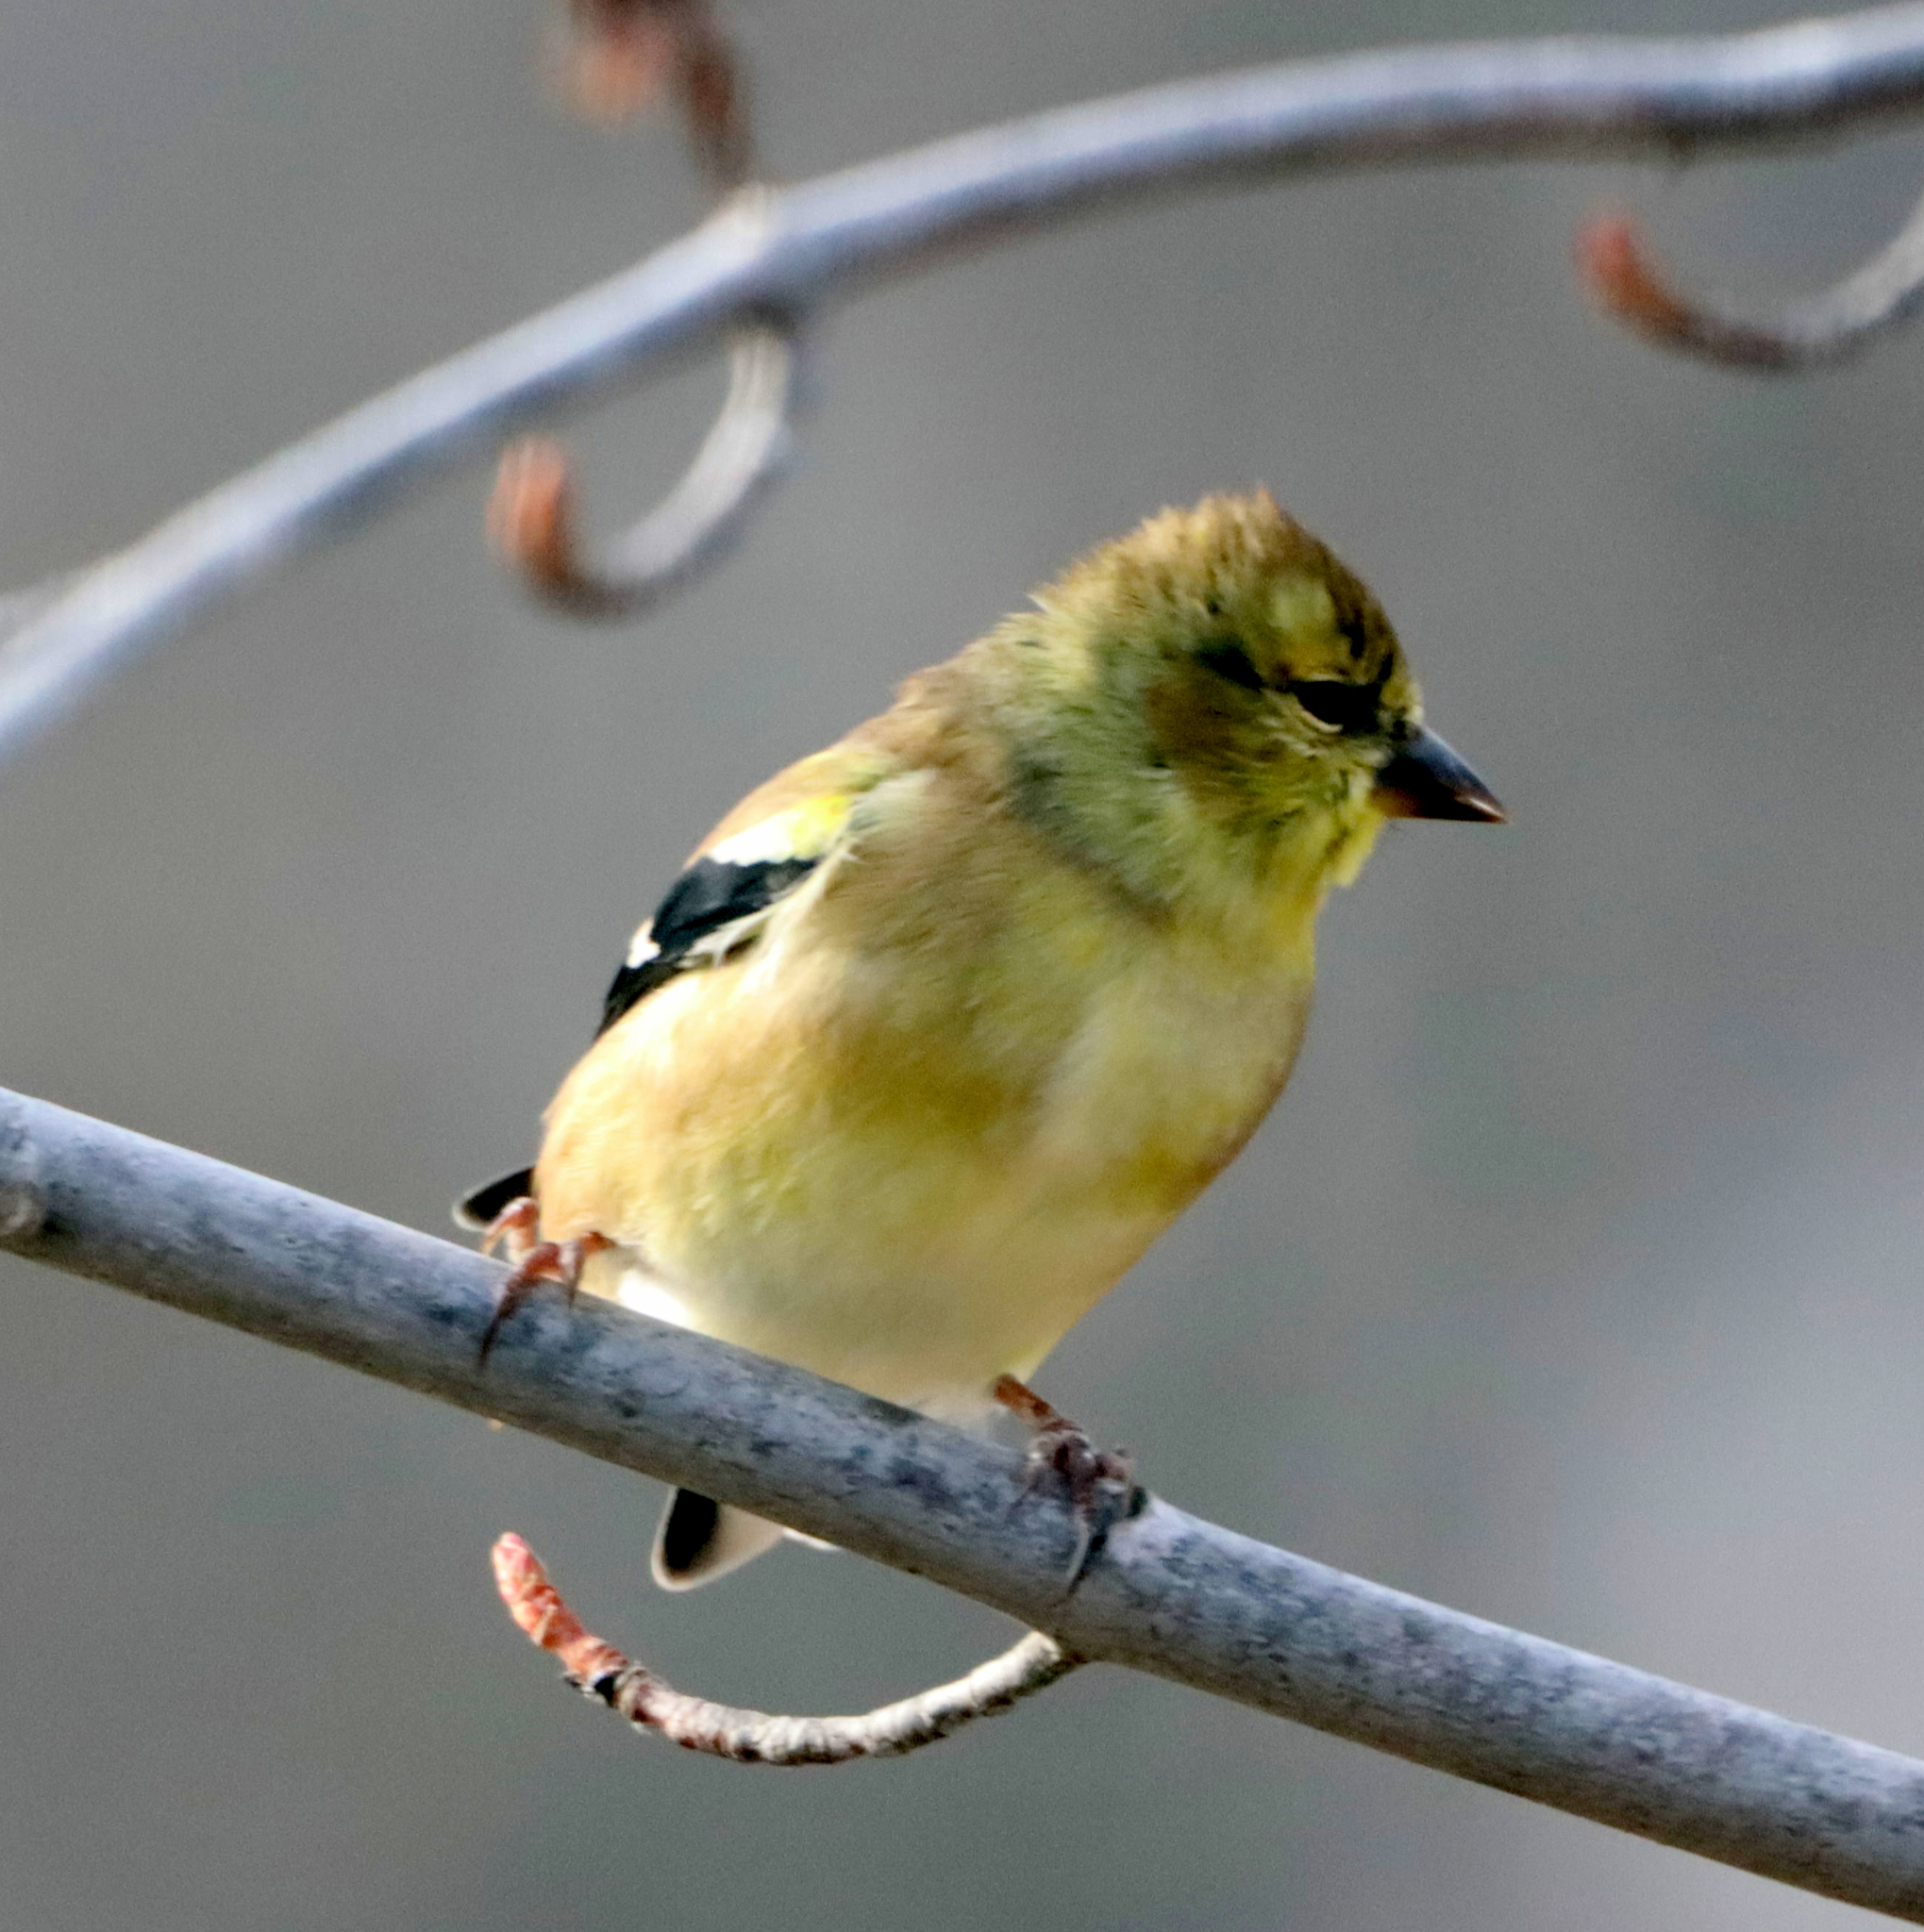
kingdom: Animalia
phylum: Chordata
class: Aves
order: Passeriformes
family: Fringillidae
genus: Spinus
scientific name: Spinus tristis
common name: American goldfinch
